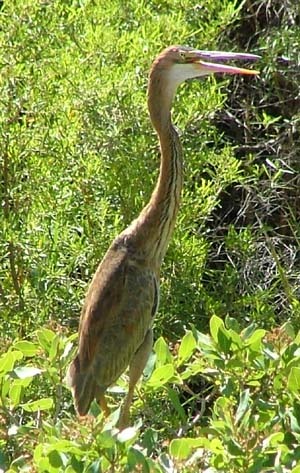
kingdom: Animalia
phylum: Chordata
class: Aves
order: Pelecaniformes
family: Ardeidae
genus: Ardea
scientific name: Ardea purpurea
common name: Purple heron
